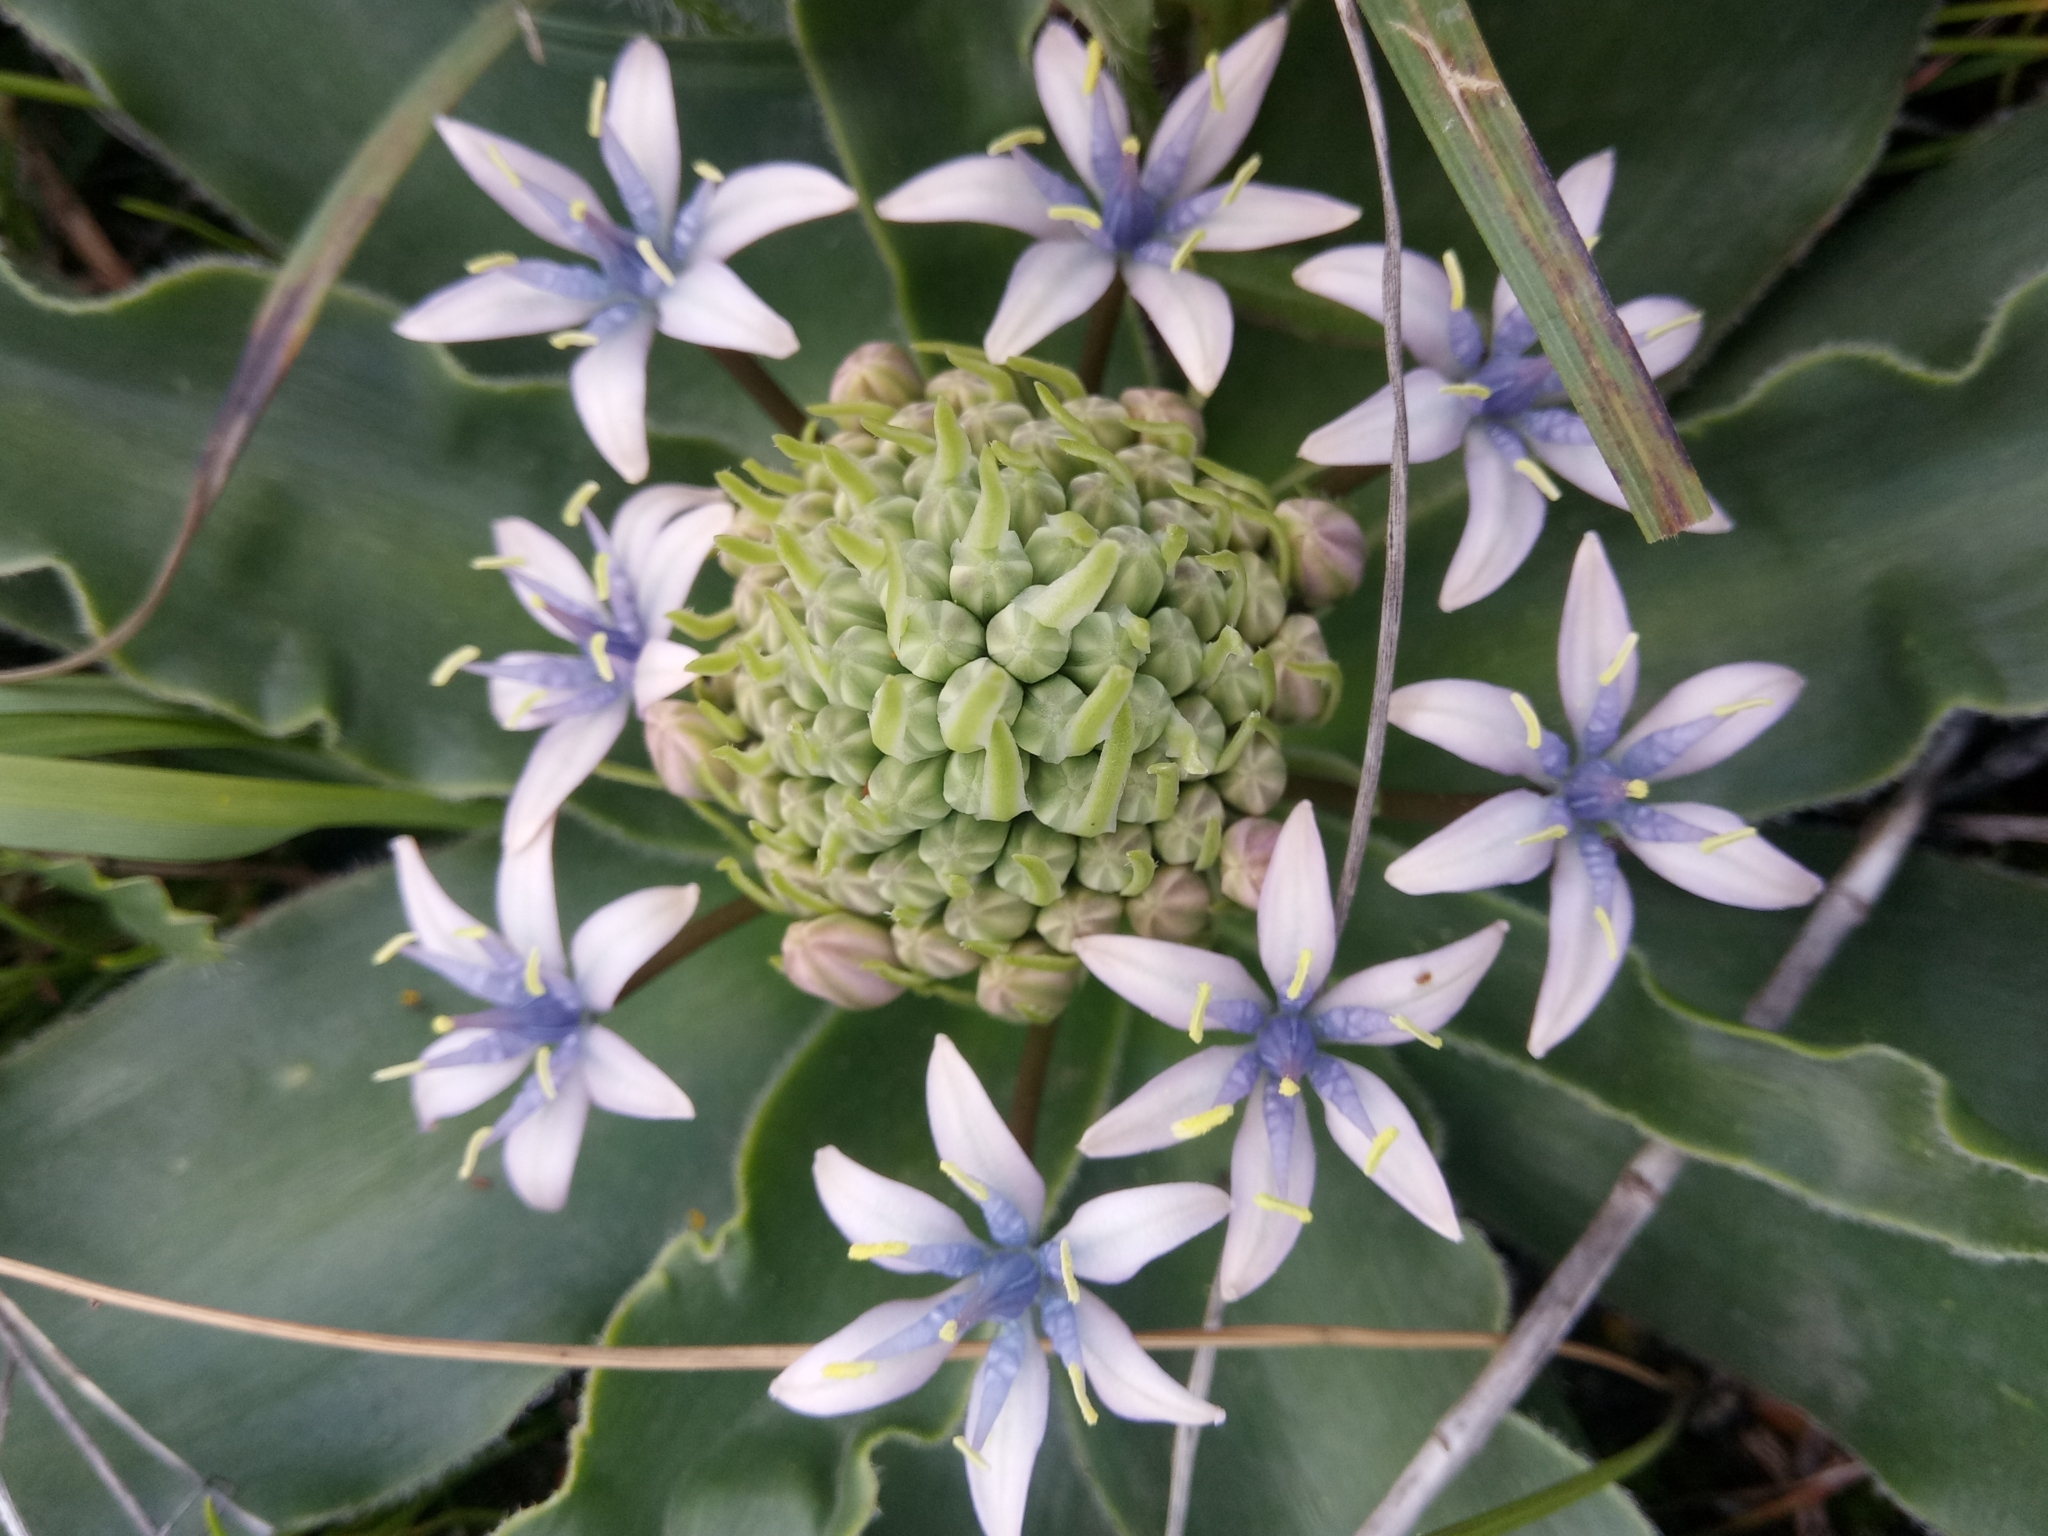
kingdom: Plantae
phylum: Tracheophyta
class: Liliopsida
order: Asparagales
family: Asparagaceae
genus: Scilla
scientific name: Scilla peruviana
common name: Portuguese squill
